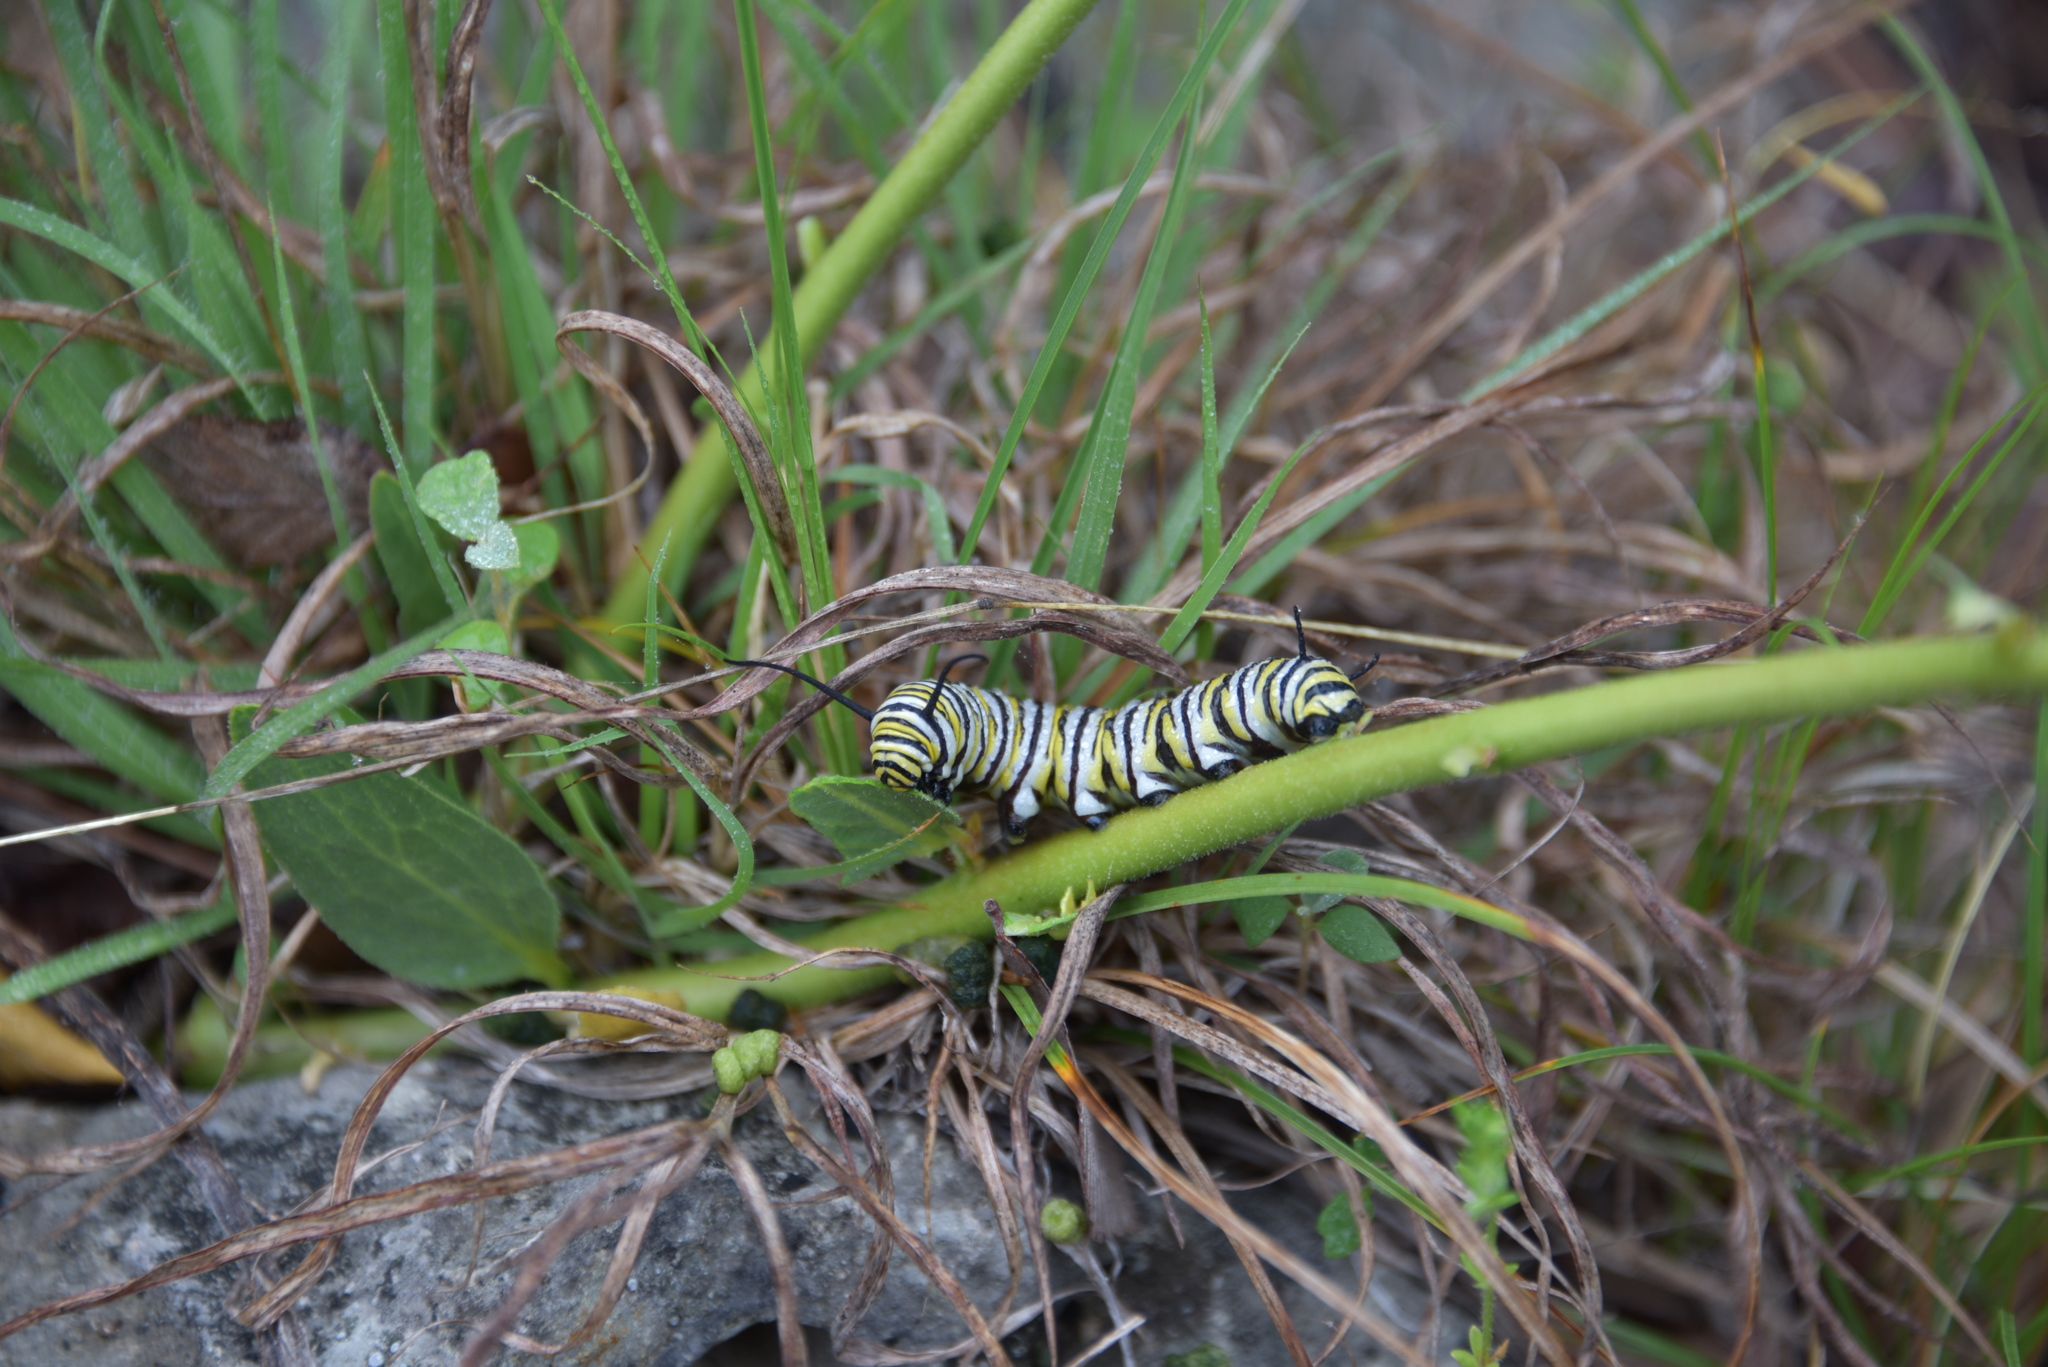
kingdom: Animalia
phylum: Arthropoda
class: Insecta
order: Lepidoptera
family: Nymphalidae
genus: Danaus
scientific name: Danaus plexippus
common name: Monarch
